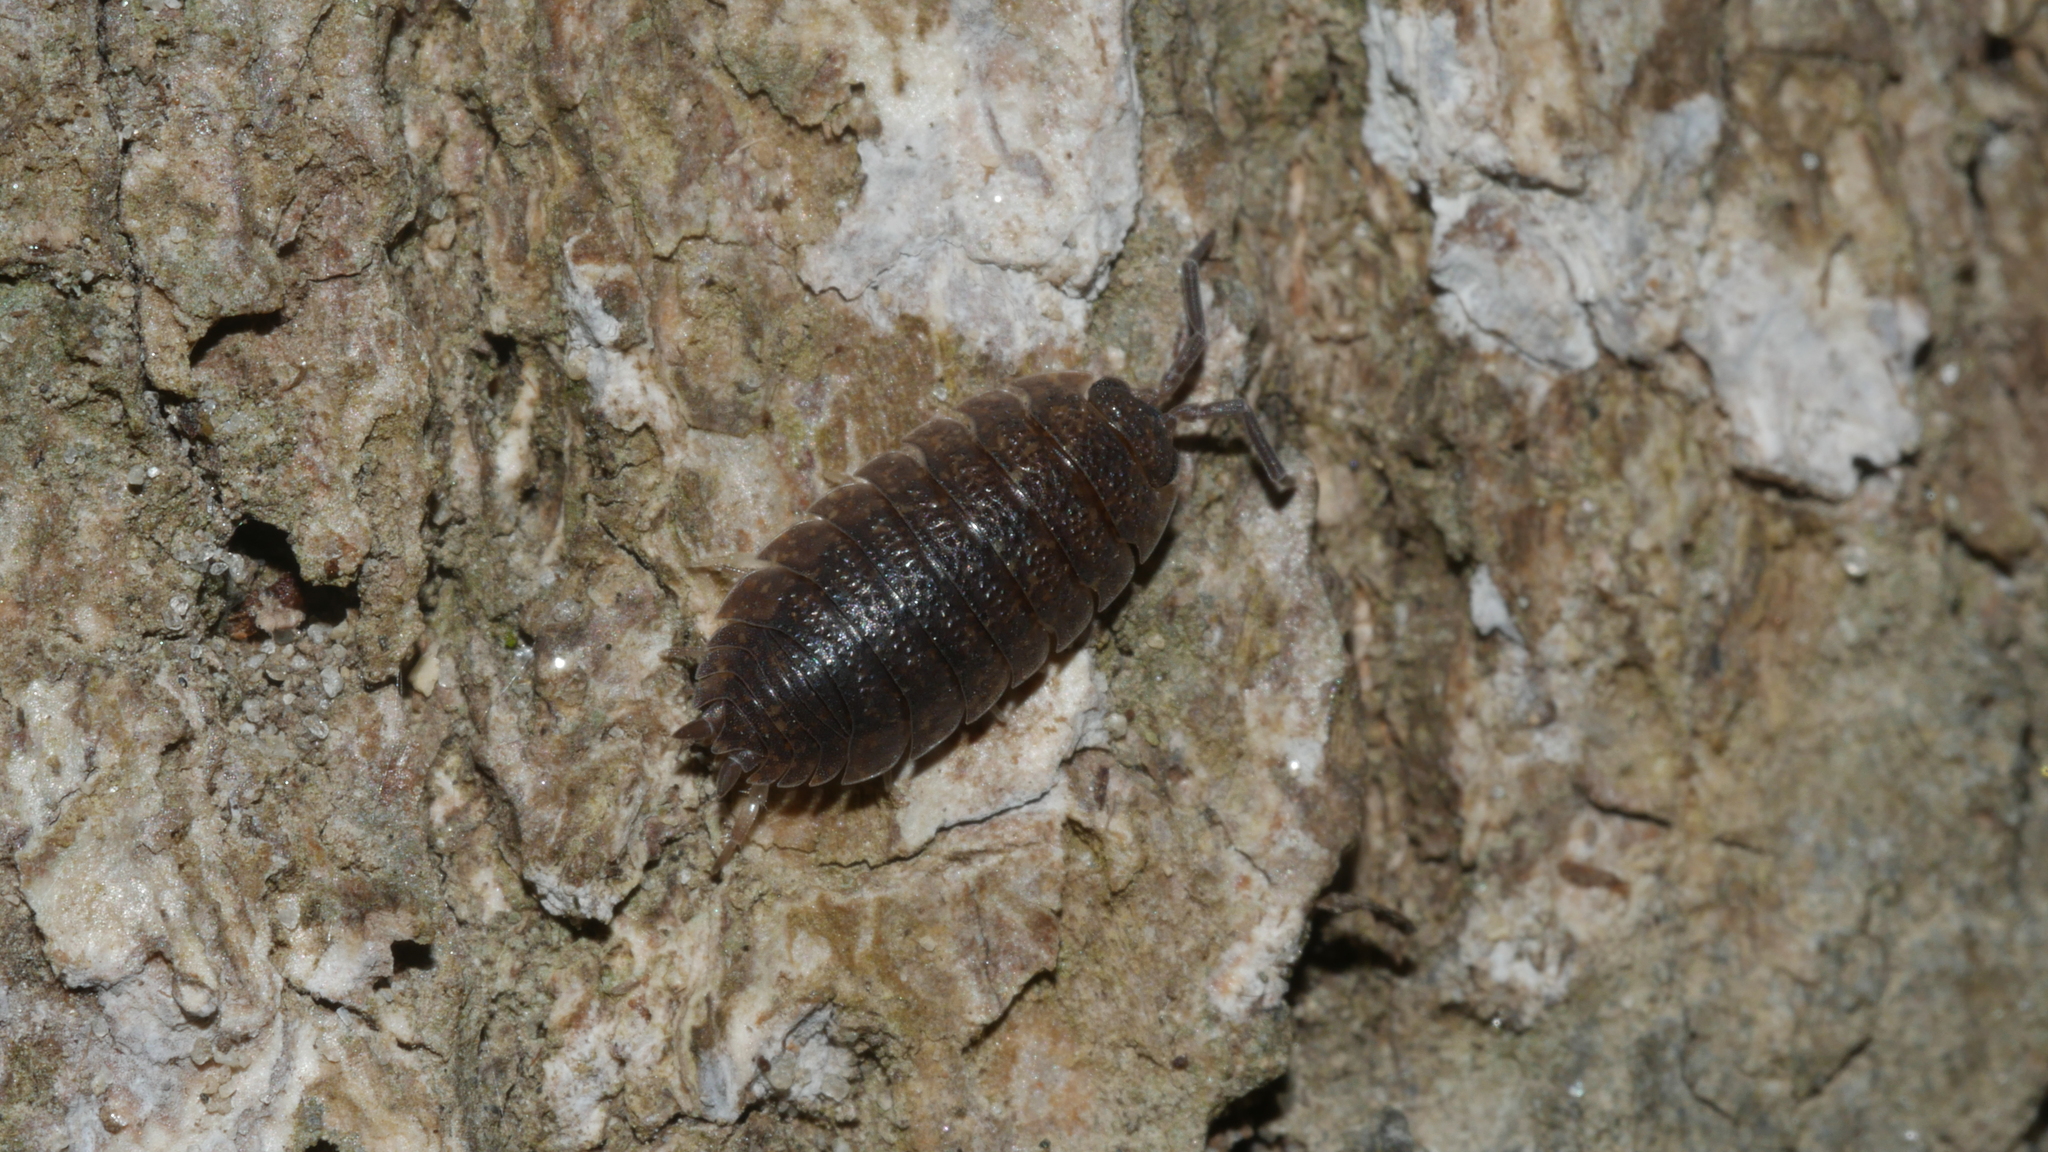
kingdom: Animalia
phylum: Arthropoda
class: Malacostraca
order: Isopoda
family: Porcellionidae
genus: Porcellio
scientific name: Porcellio scaber
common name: Common rough woodlouse
